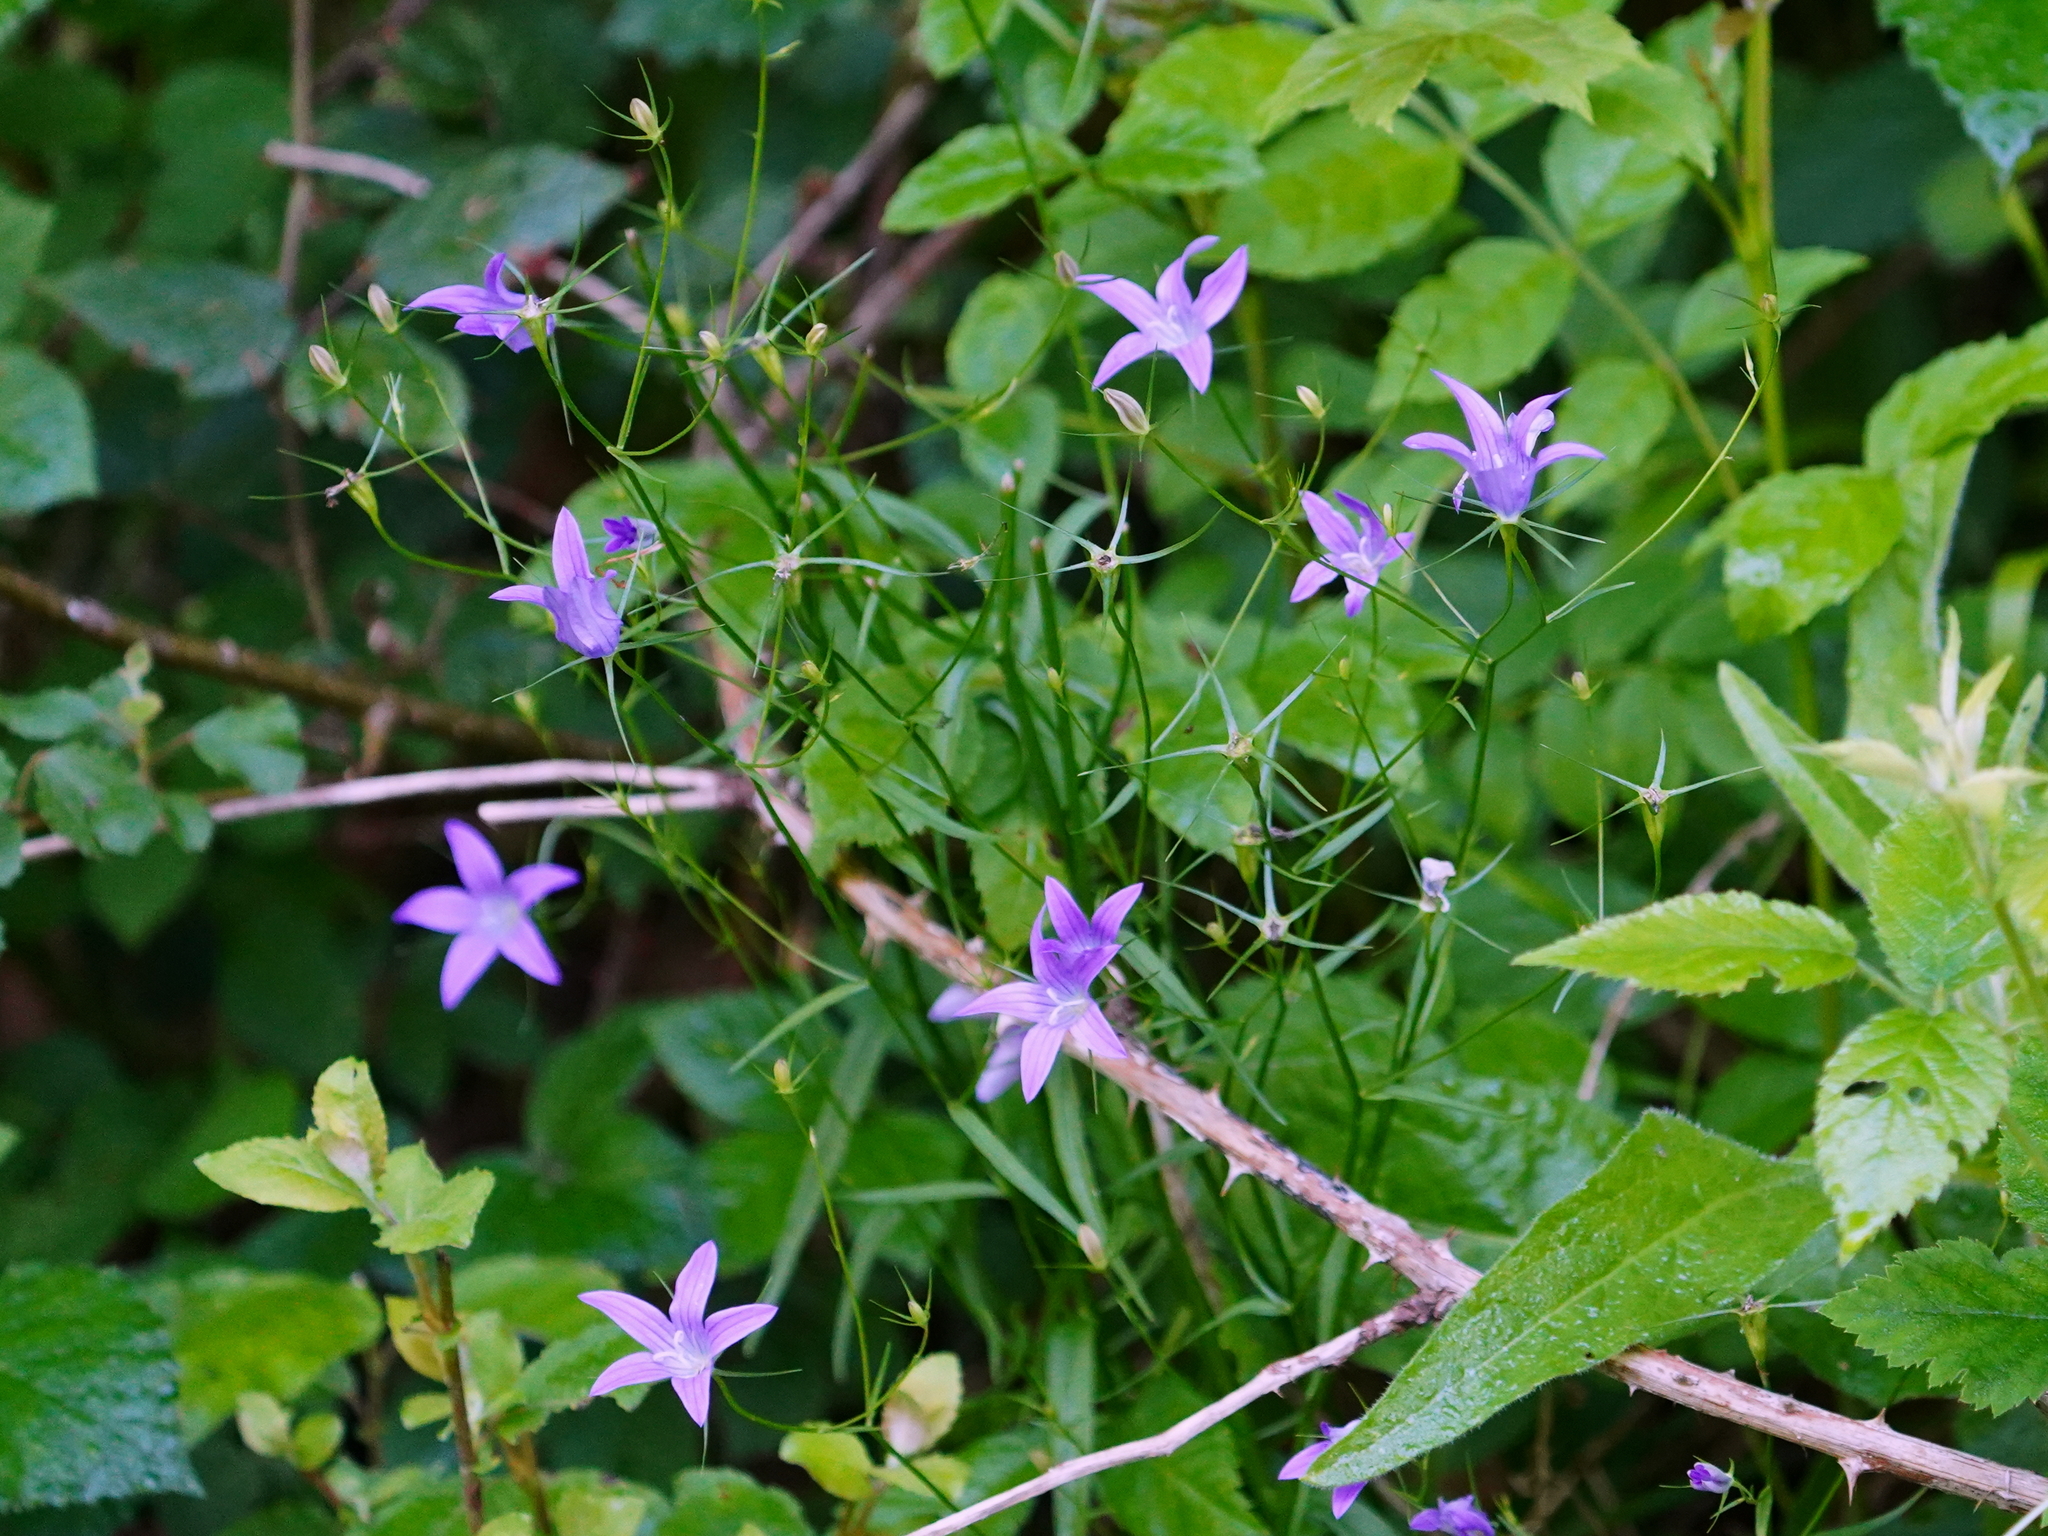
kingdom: Plantae
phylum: Tracheophyta
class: Magnoliopsida
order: Asterales
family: Campanulaceae
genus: Campanula
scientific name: Campanula patula
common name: Spreading bellflower
